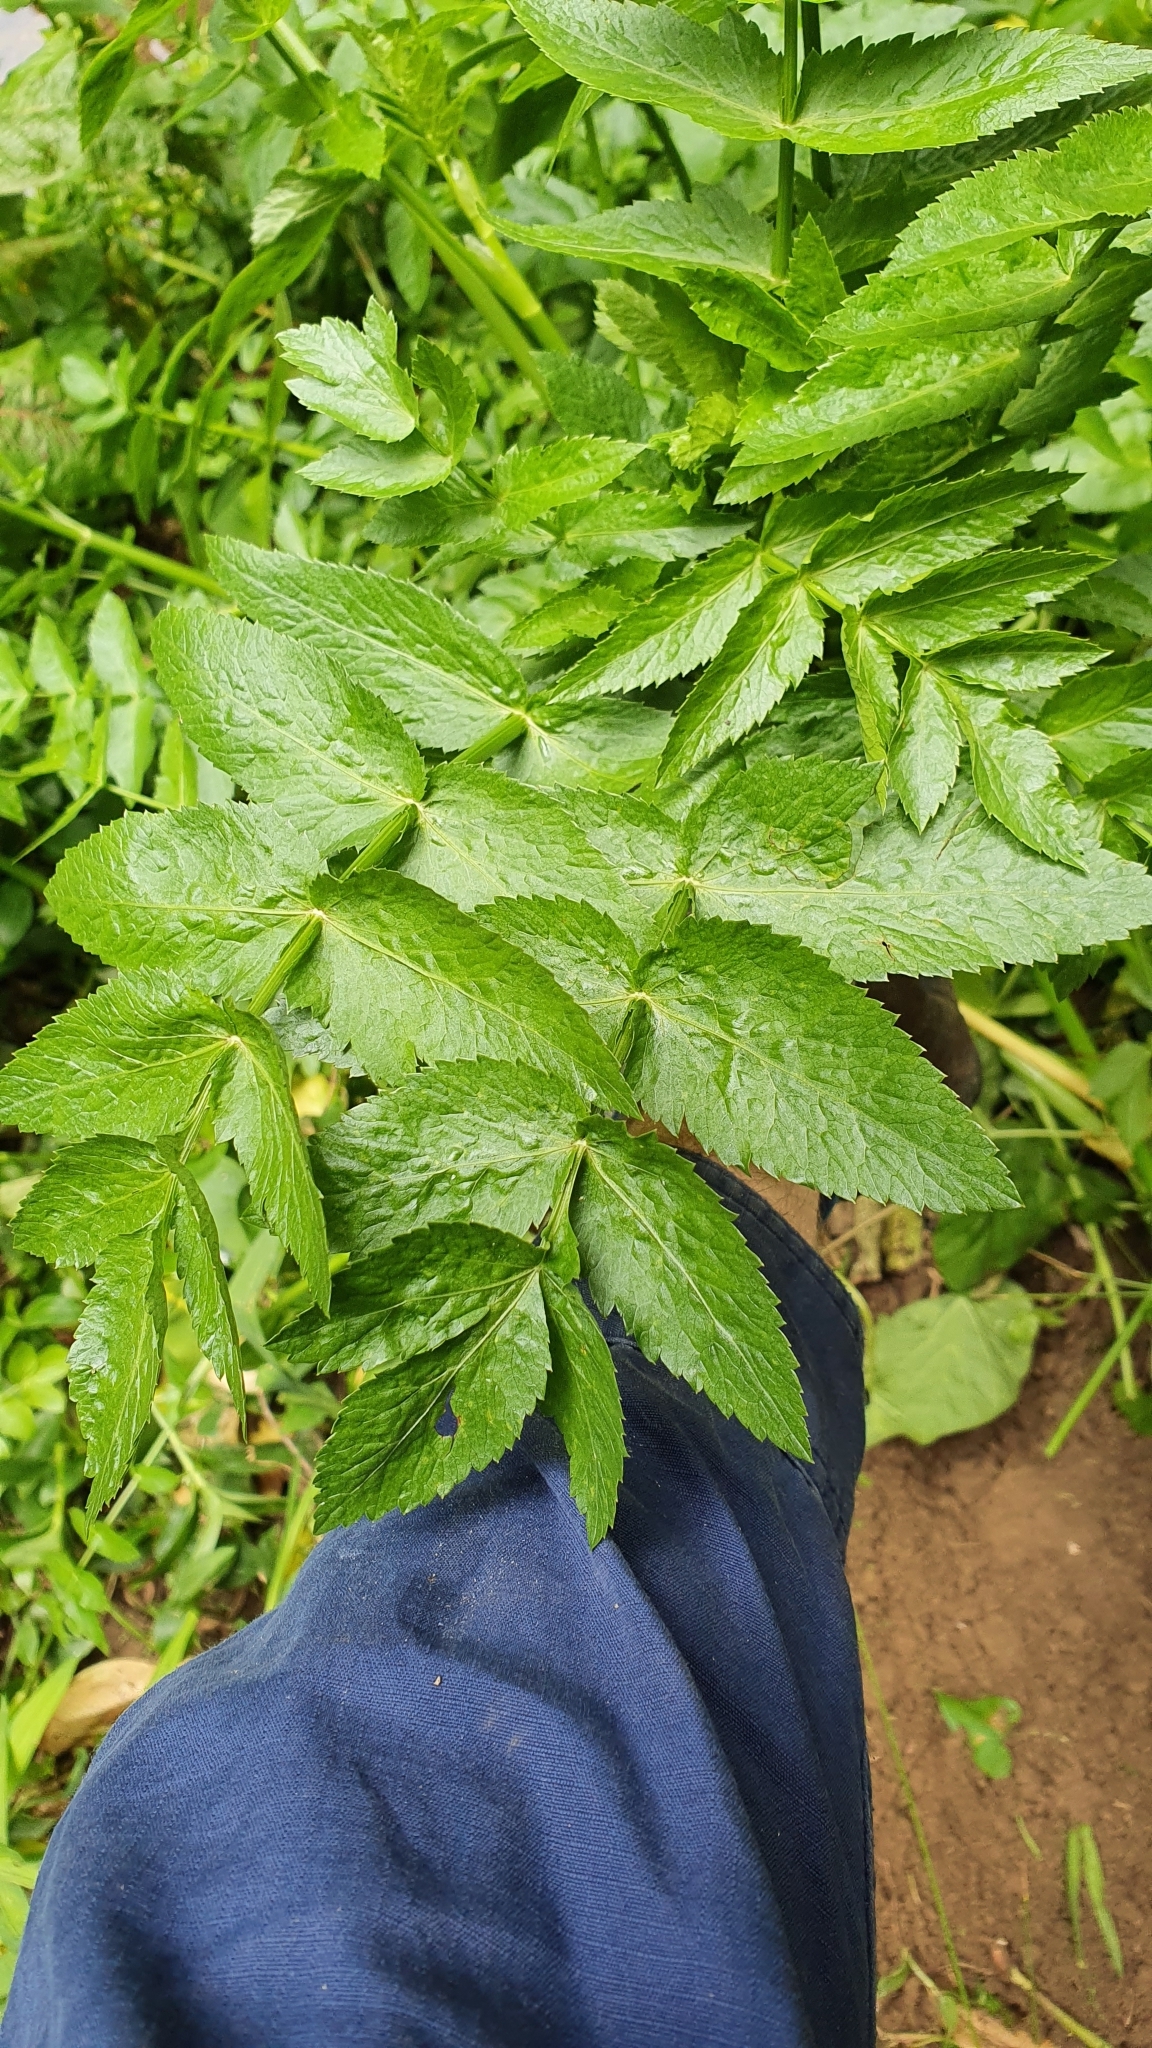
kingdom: Plantae
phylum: Tracheophyta
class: Magnoliopsida
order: Apiales
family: Apiaceae
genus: Helosciadium
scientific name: Helosciadium nodiflorum
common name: Fool's-watercress
